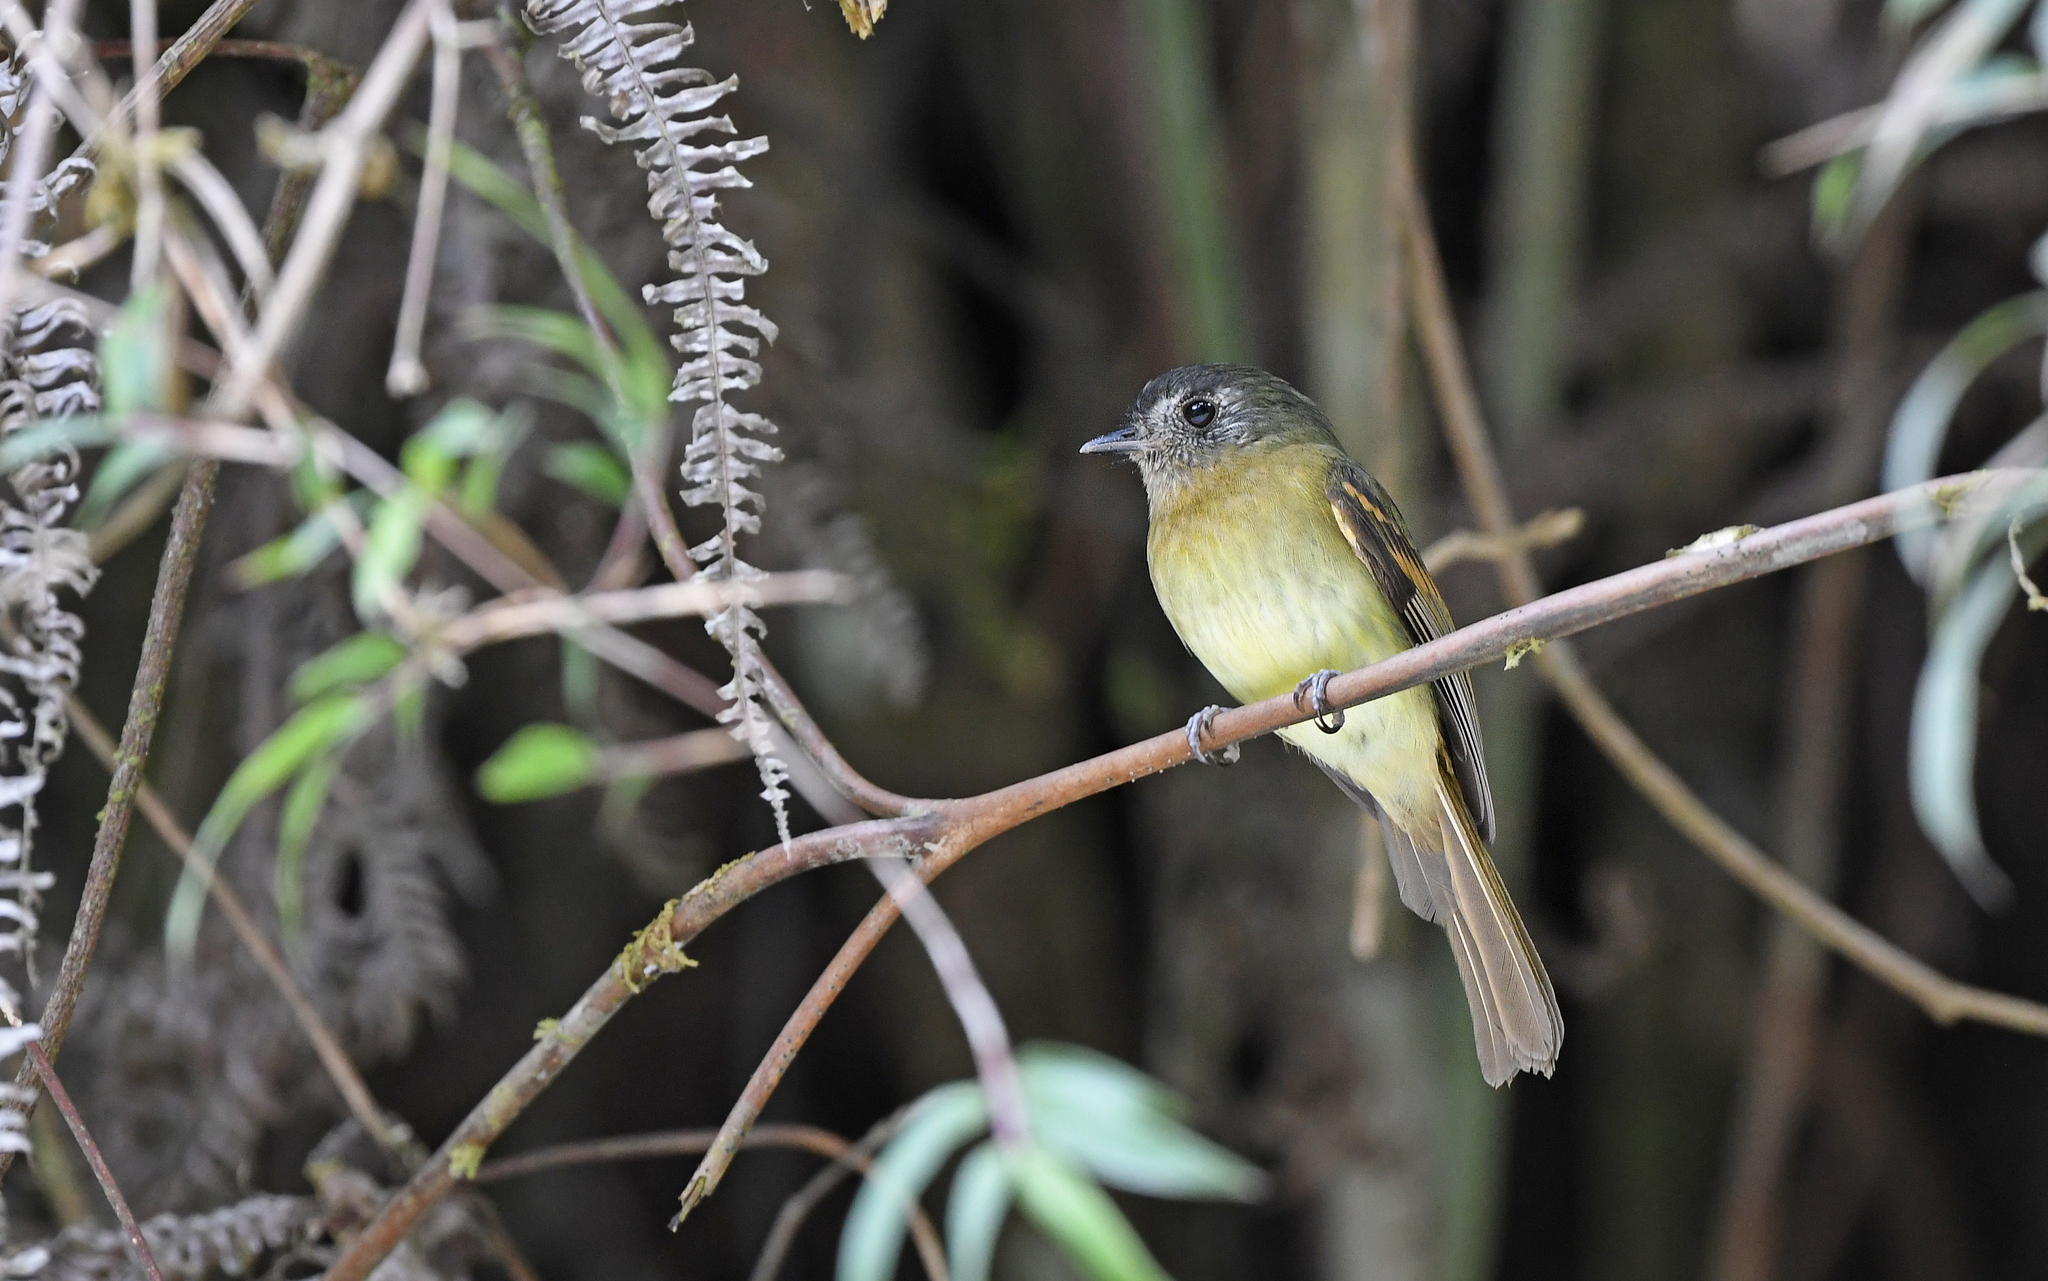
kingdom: Animalia
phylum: Chordata
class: Aves
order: Passeriformes
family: Tyrannidae
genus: Leptopogon
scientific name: Leptopogon taczanowskii
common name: Inca flycatcher
